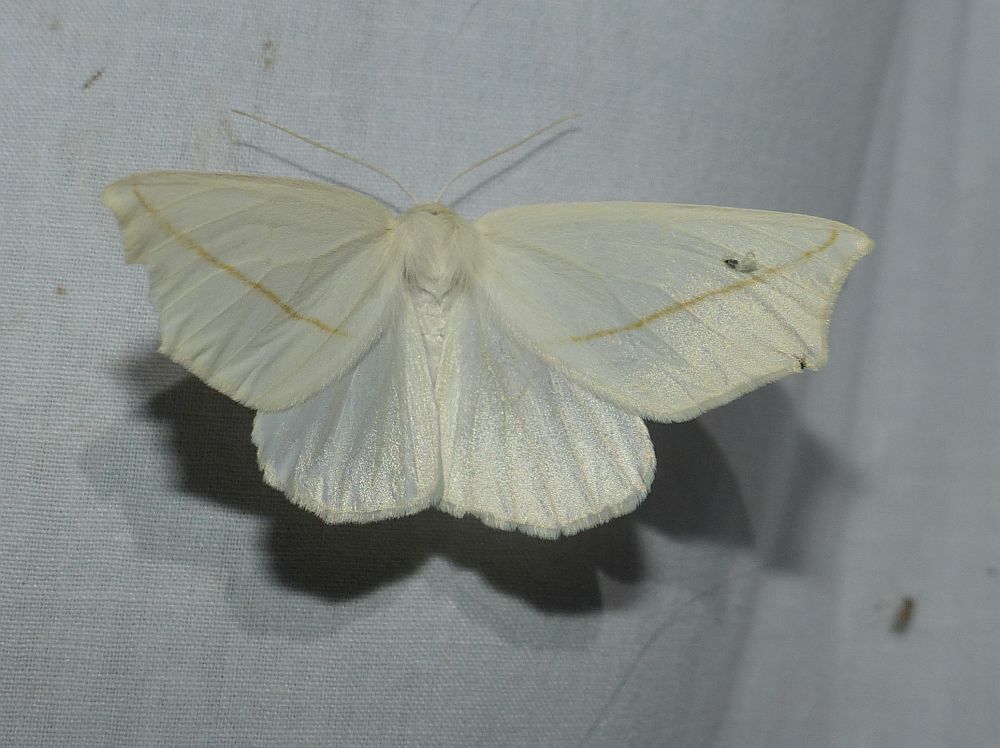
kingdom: Animalia
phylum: Arthropoda
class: Insecta
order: Lepidoptera
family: Geometridae
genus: Tetracis
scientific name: Tetracis cachexiata
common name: White slant-line
